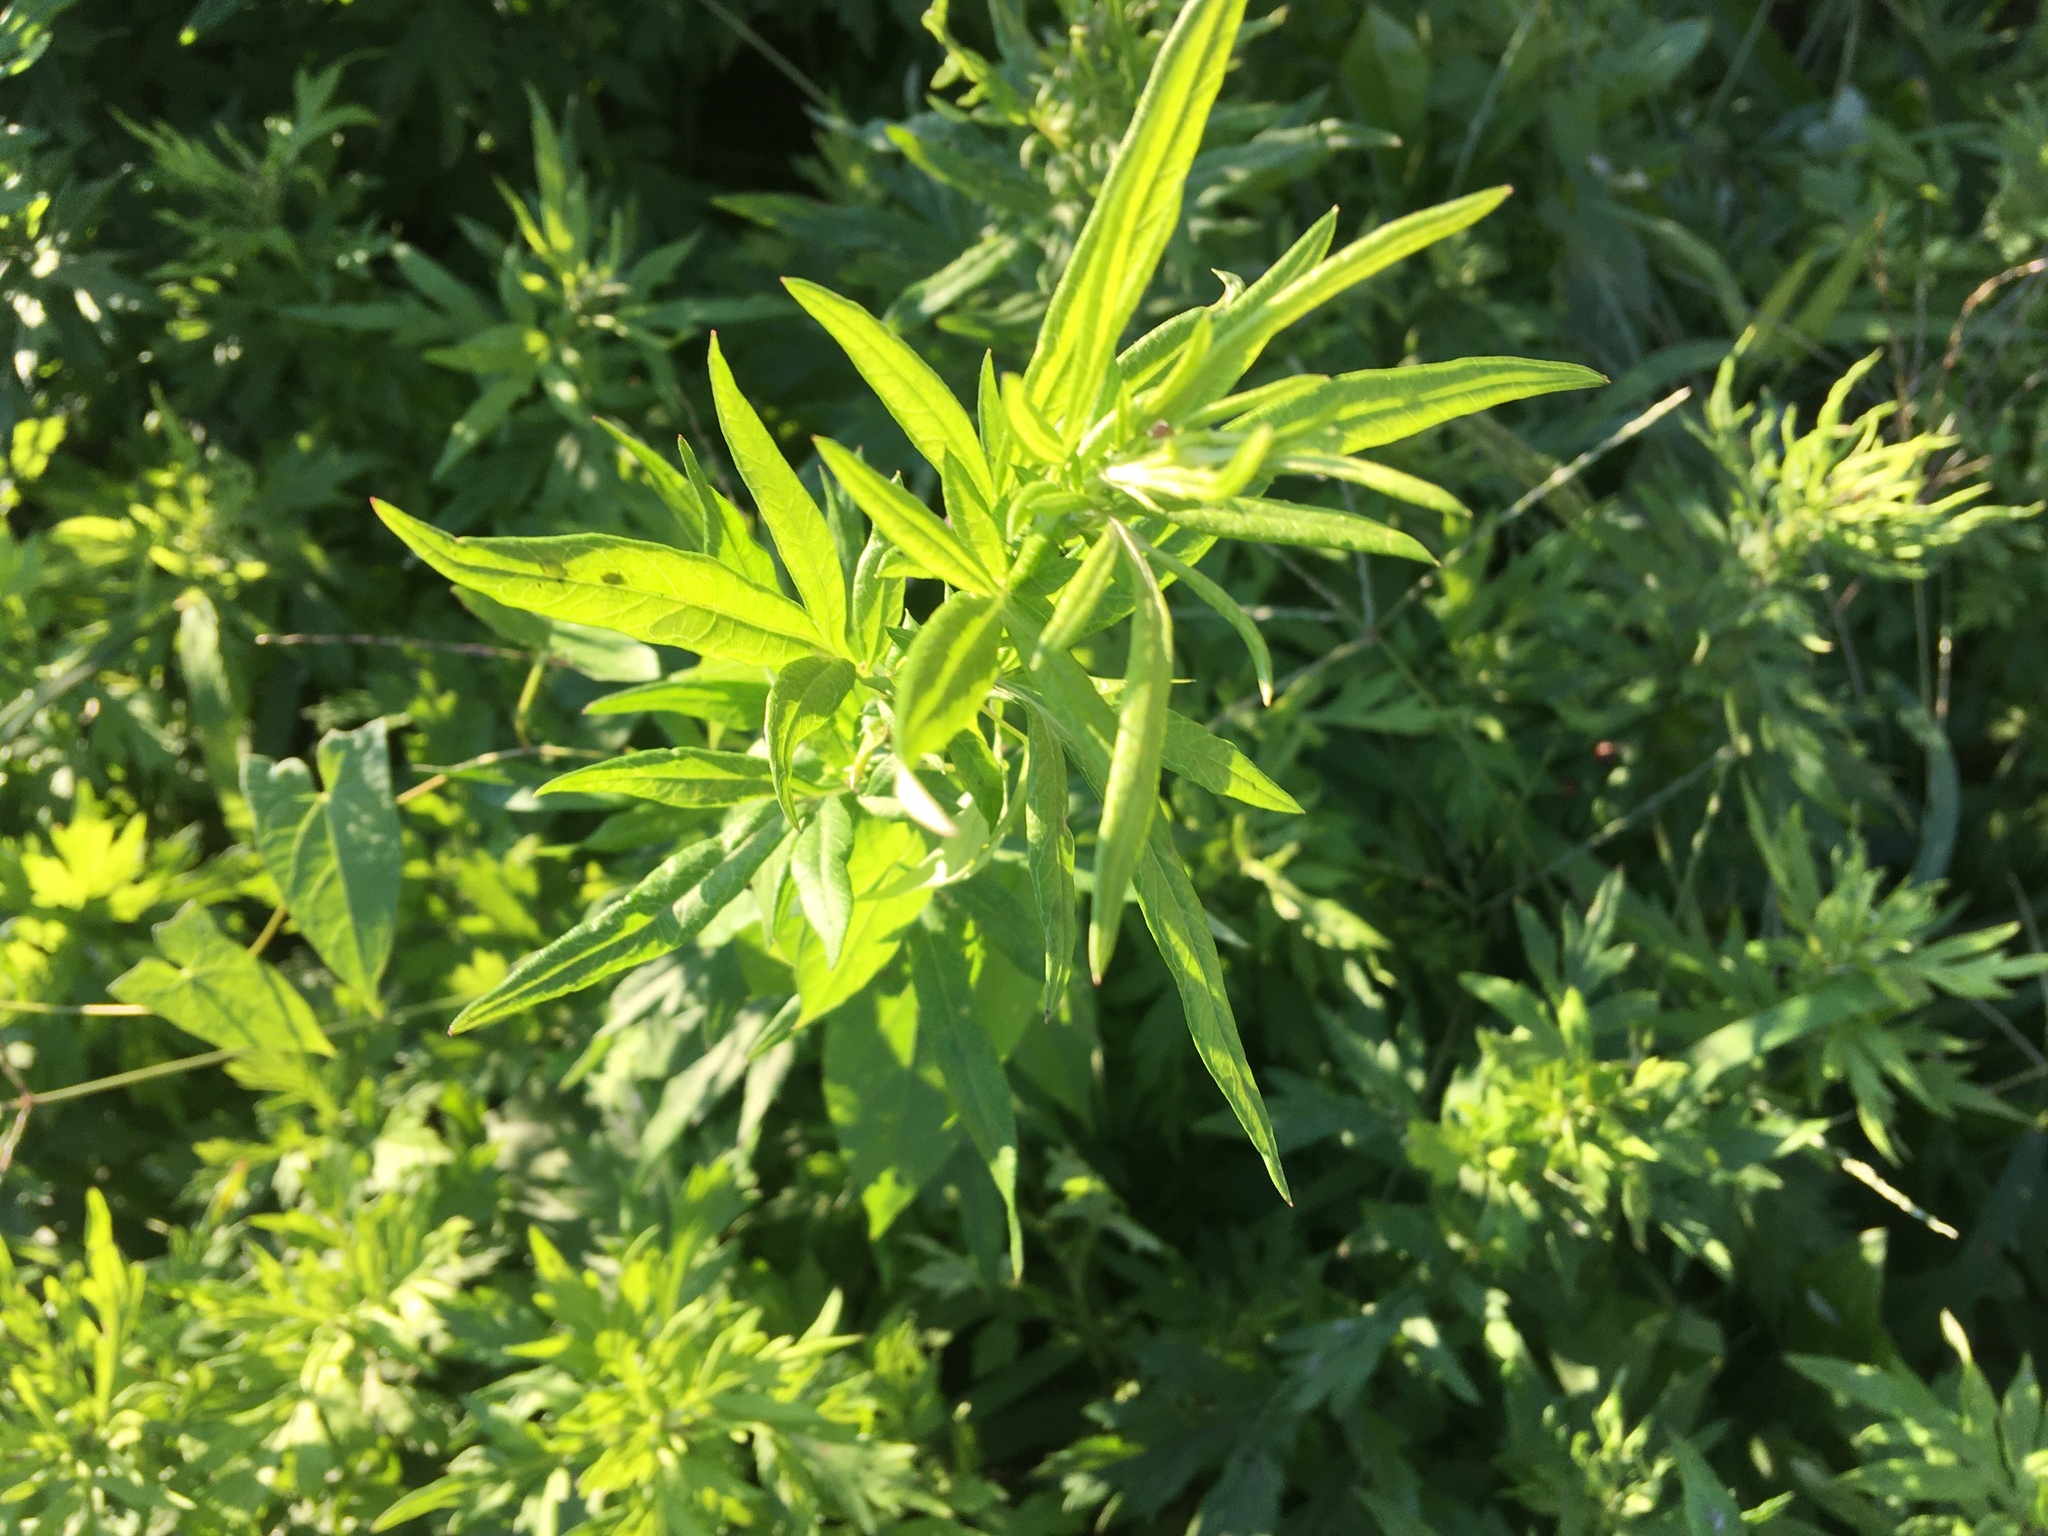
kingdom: Plantae
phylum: Tracheophyta
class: Magnoliopsida
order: Asterales
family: Asteraceae
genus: Artemisia
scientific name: Artemisia vulgaris
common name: Mugwort
